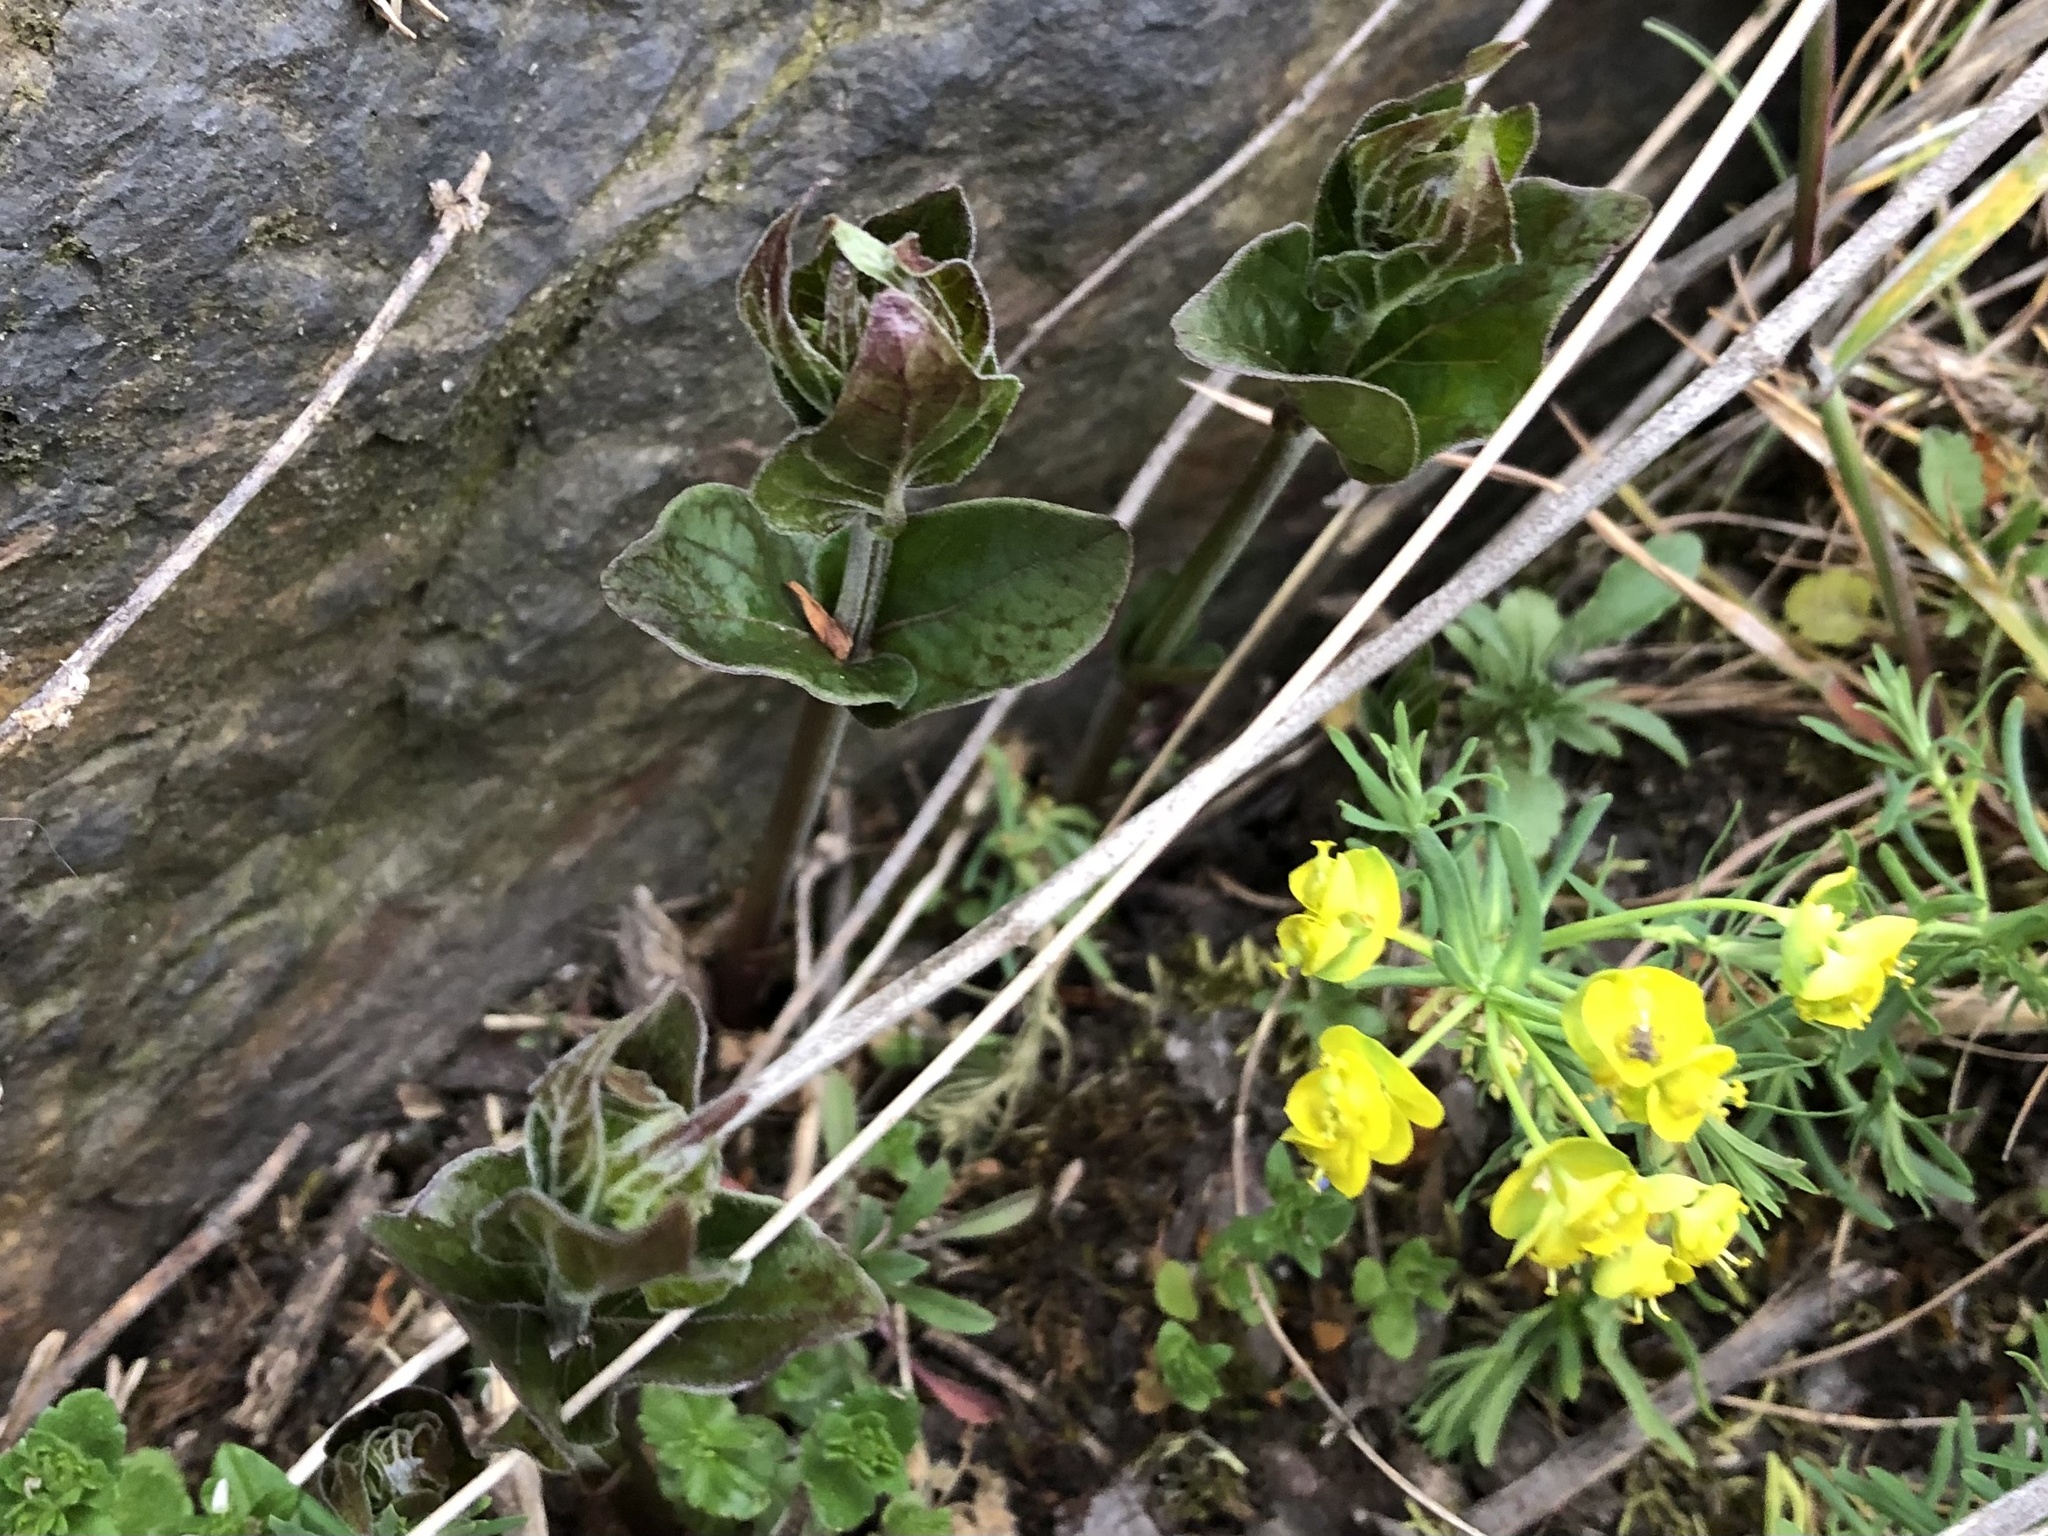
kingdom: Plantae
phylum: Tracheophyta
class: Magnoliopsida
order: Gentianales
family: Apocynaceae
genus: Vincetoxicum
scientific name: Vincetoxicum hirundinaria
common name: White swallowwort
